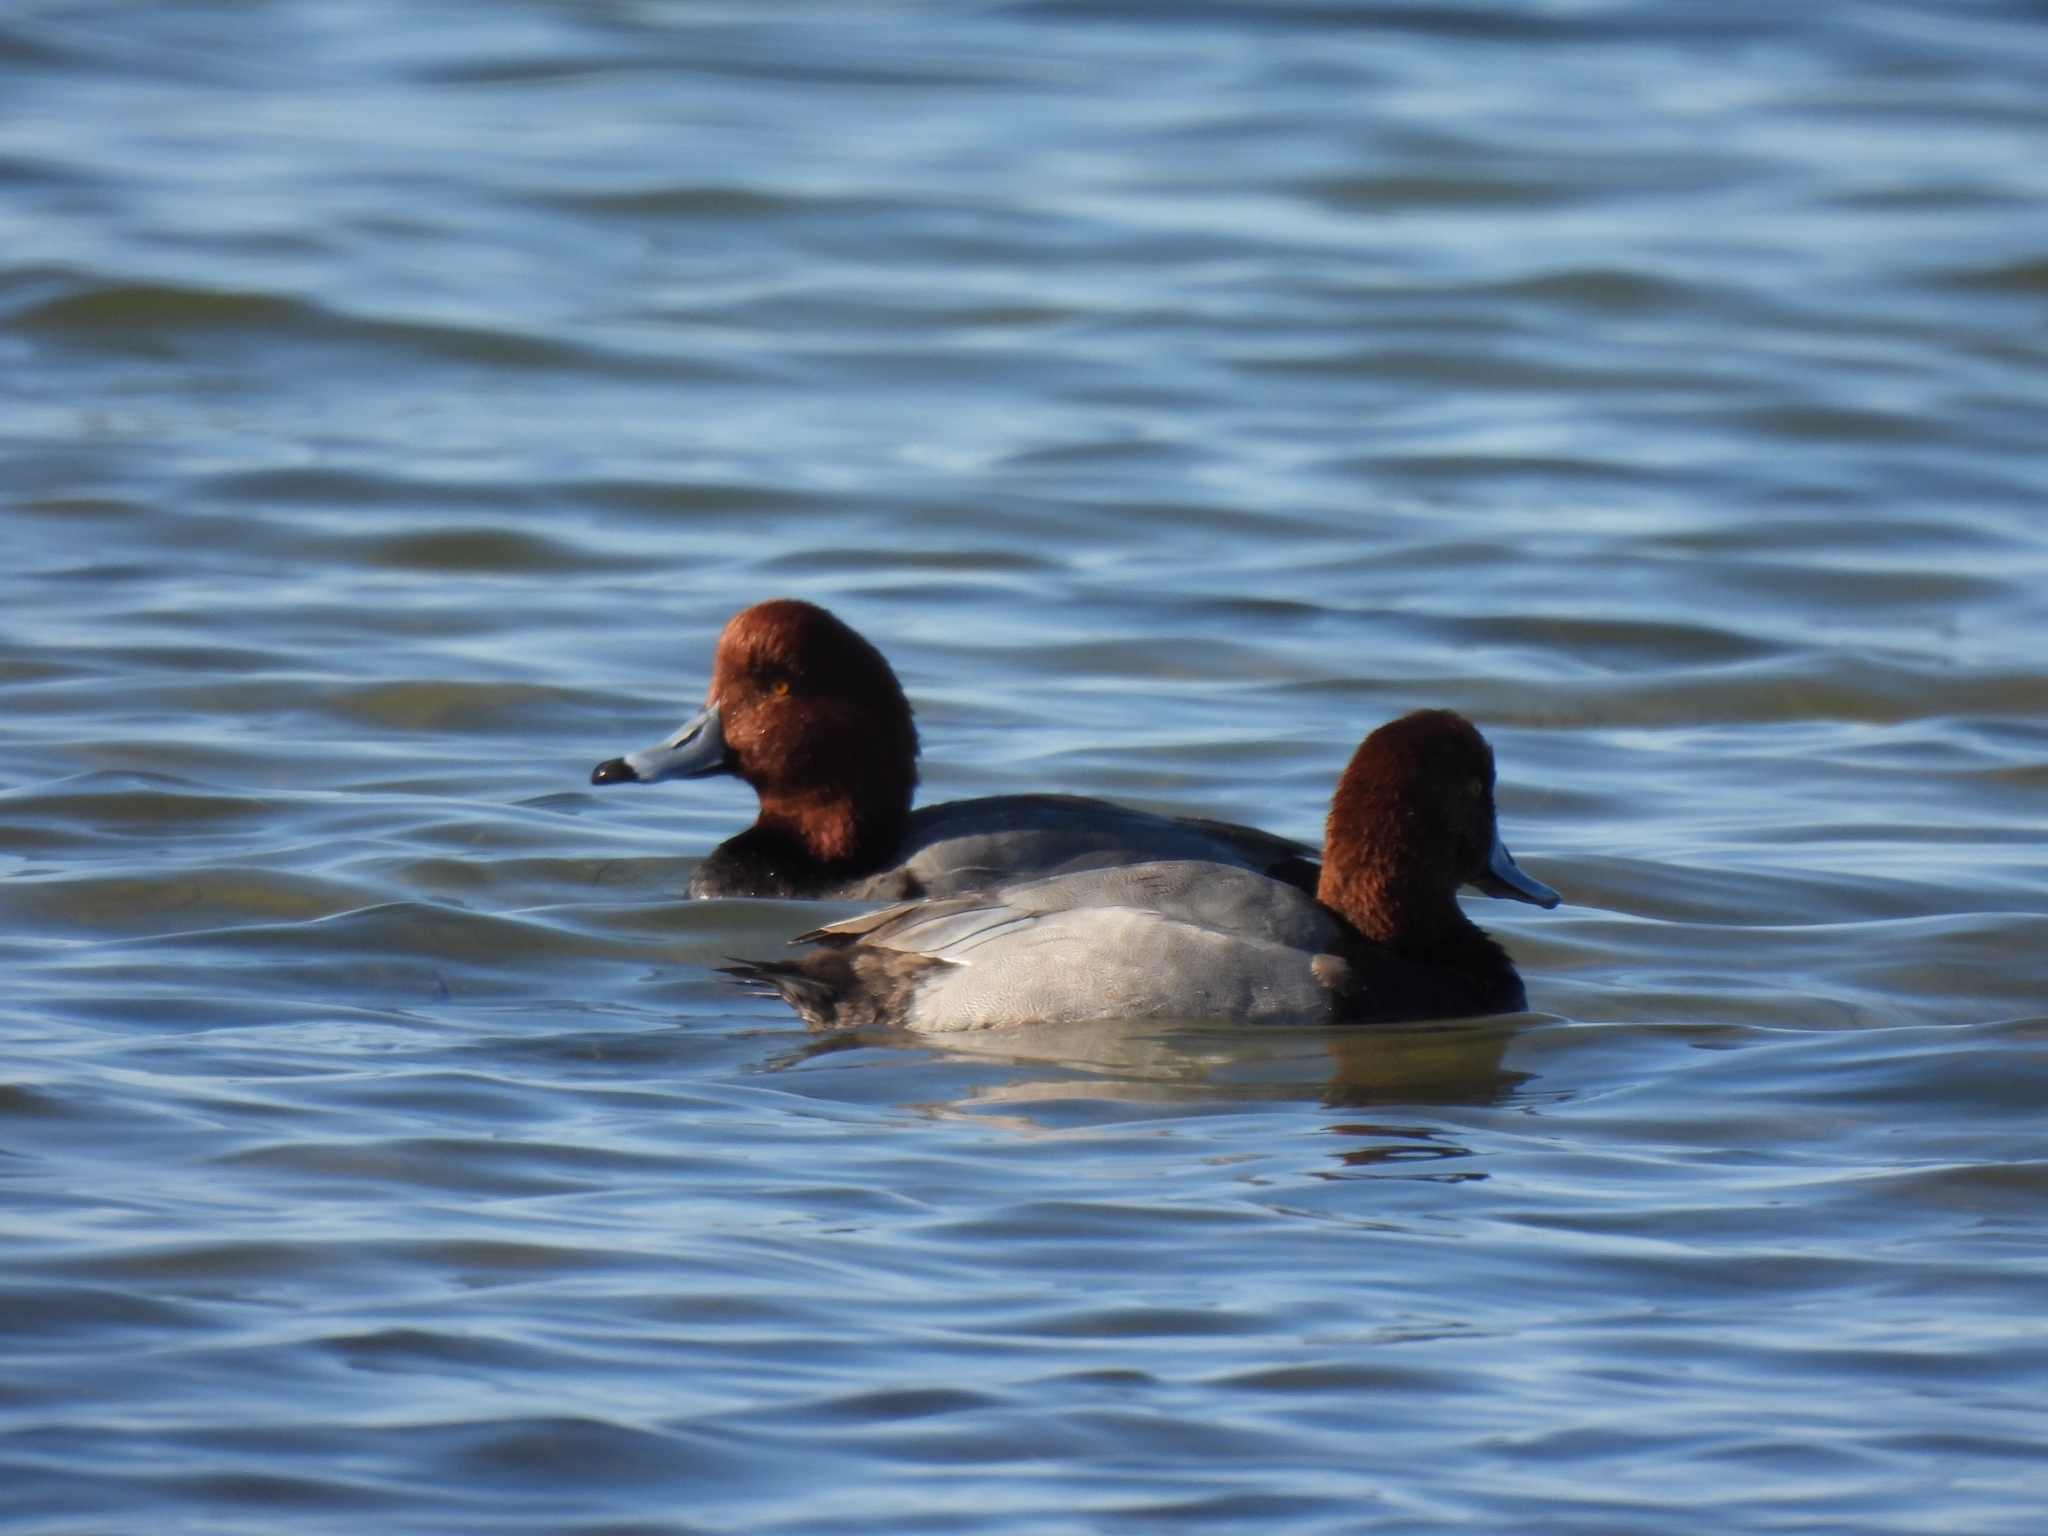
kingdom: Animalia
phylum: Chordata
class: Aves
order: Anseriformes
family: Anatidae
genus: Aythya
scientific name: Aythya americana
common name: Redhead
